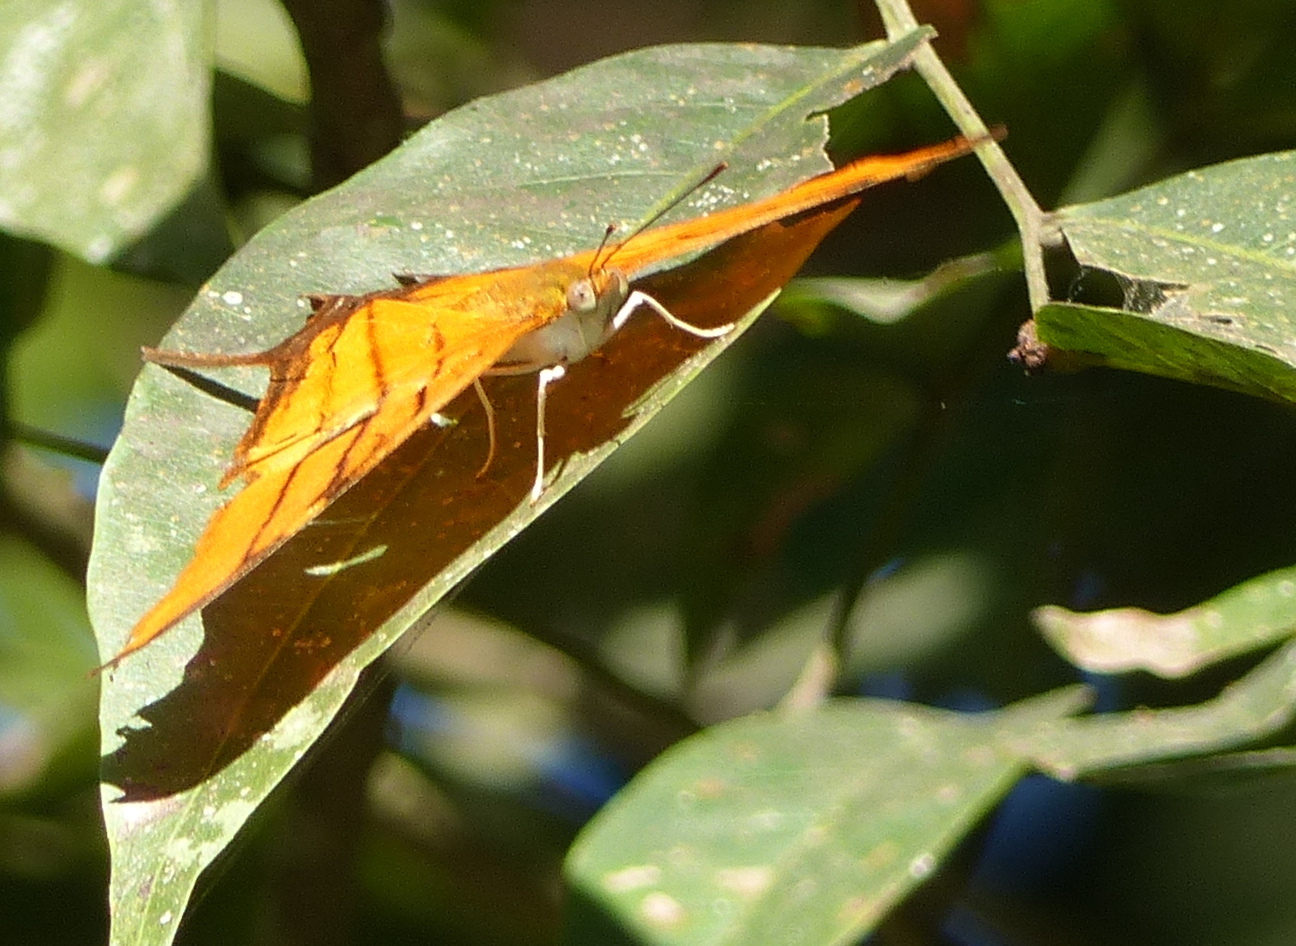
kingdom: Animalia
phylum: Arthropoda
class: Insecta
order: Lepidoptera
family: Nymphalidae
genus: Marpesia
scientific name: Marpesia petreus
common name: Red dagger wing
